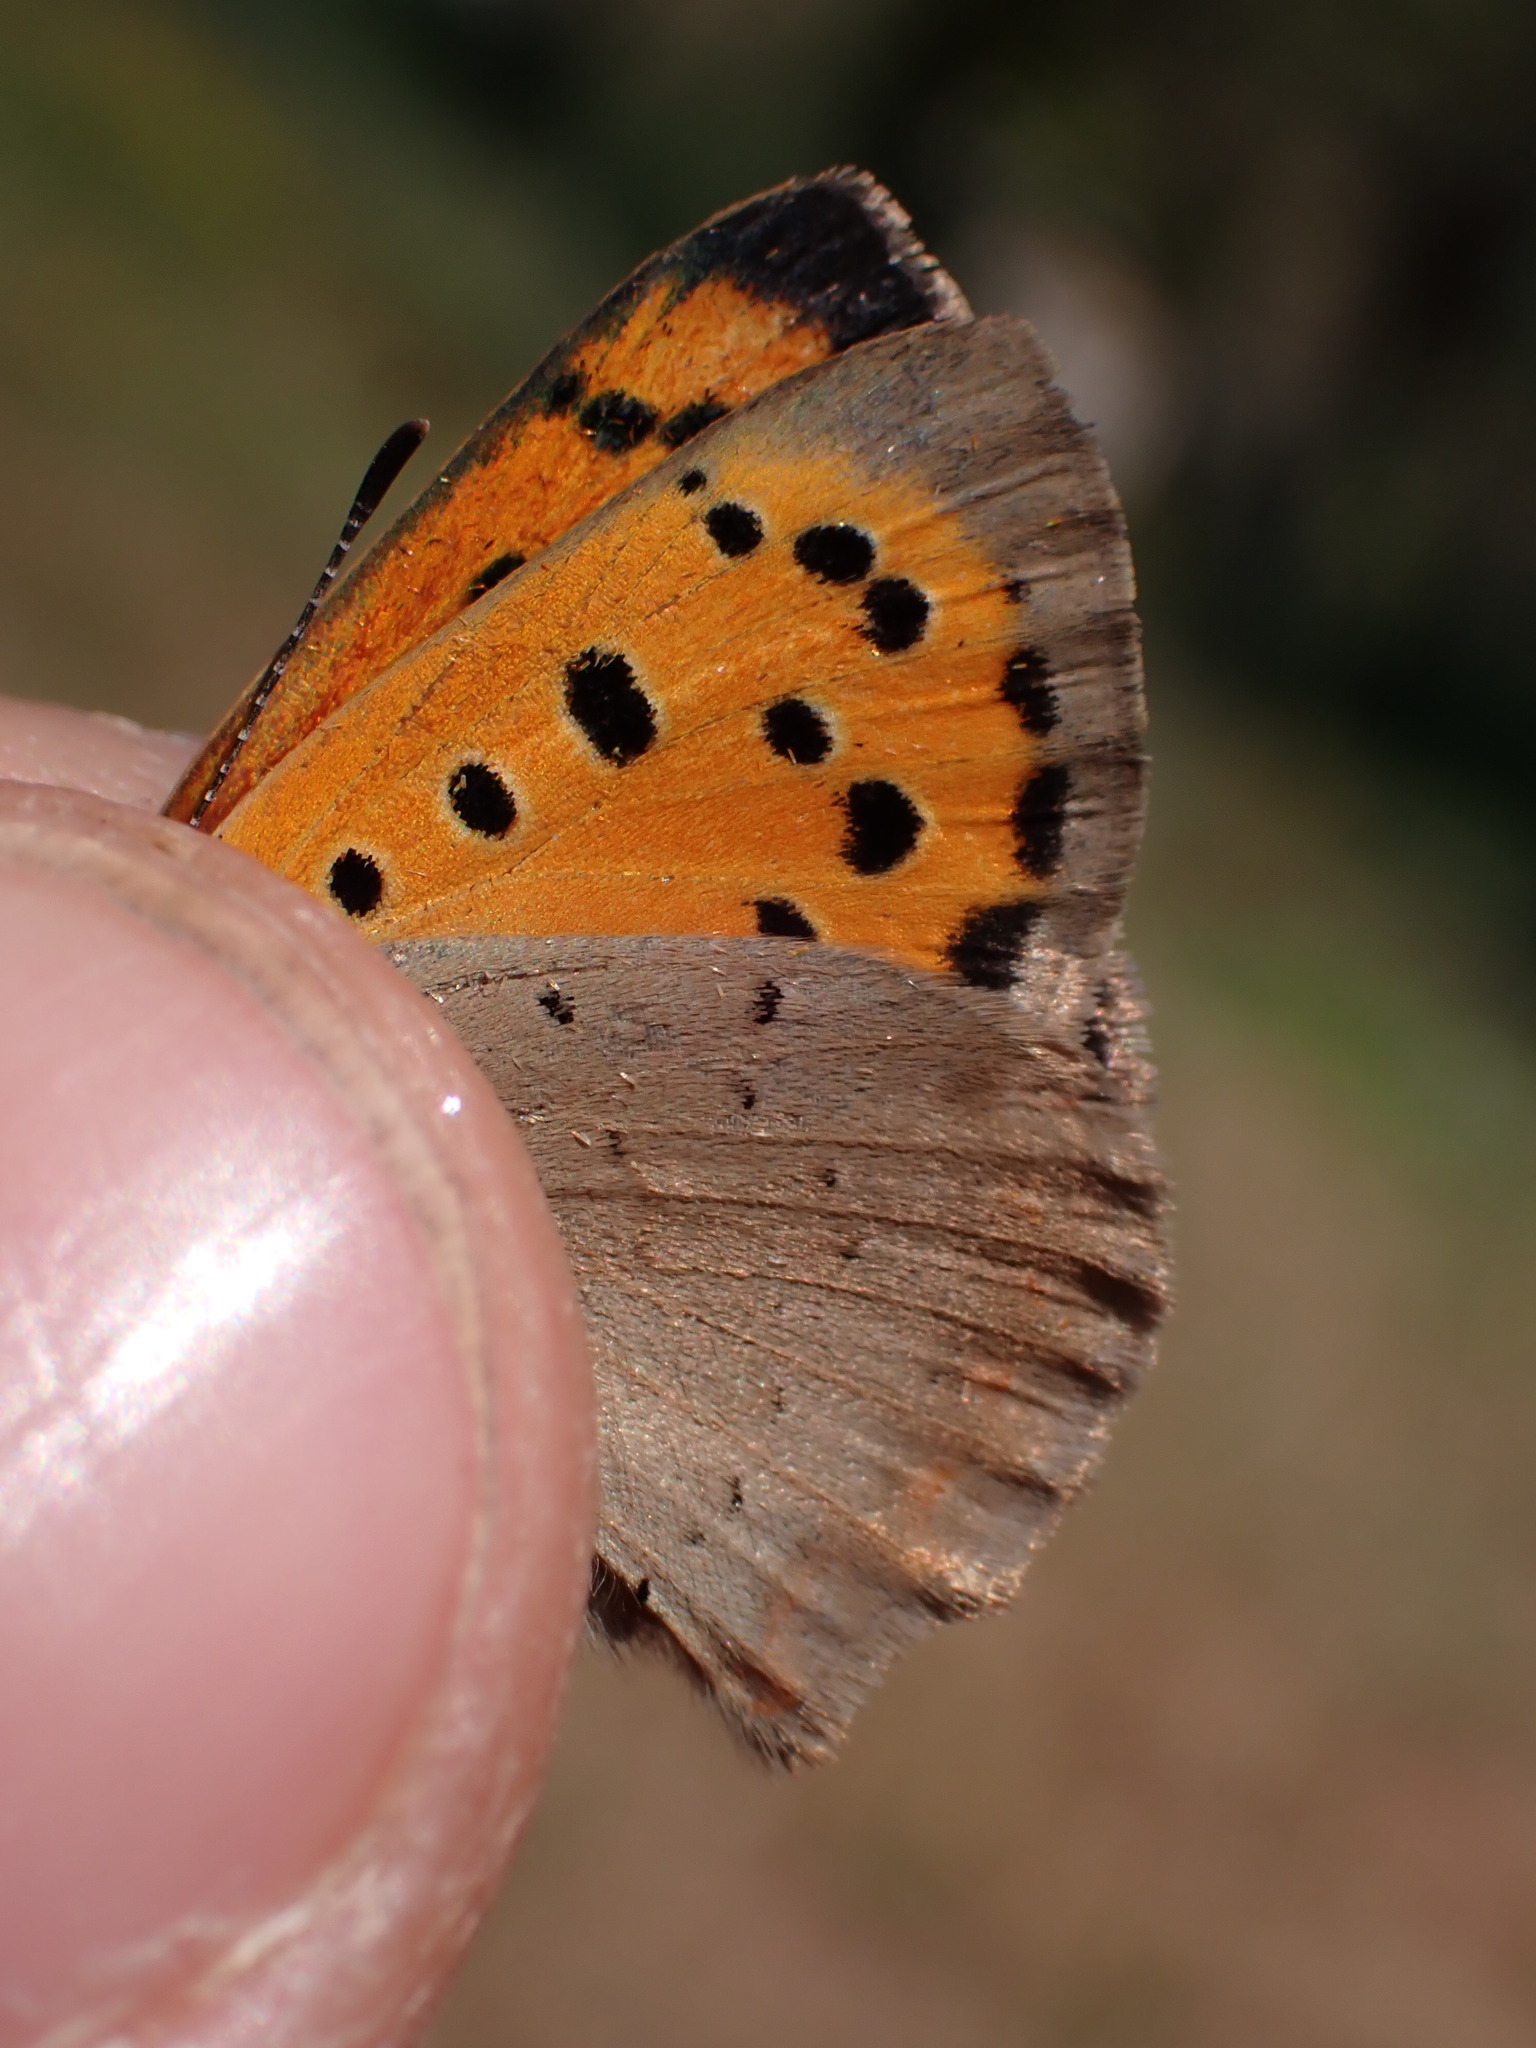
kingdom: Animalia
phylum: Arthropoda
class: Insecta
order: Lepidoptera
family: Lycaenidae
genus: Lycaena
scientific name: Lycaena phlaeas
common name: Small copper
